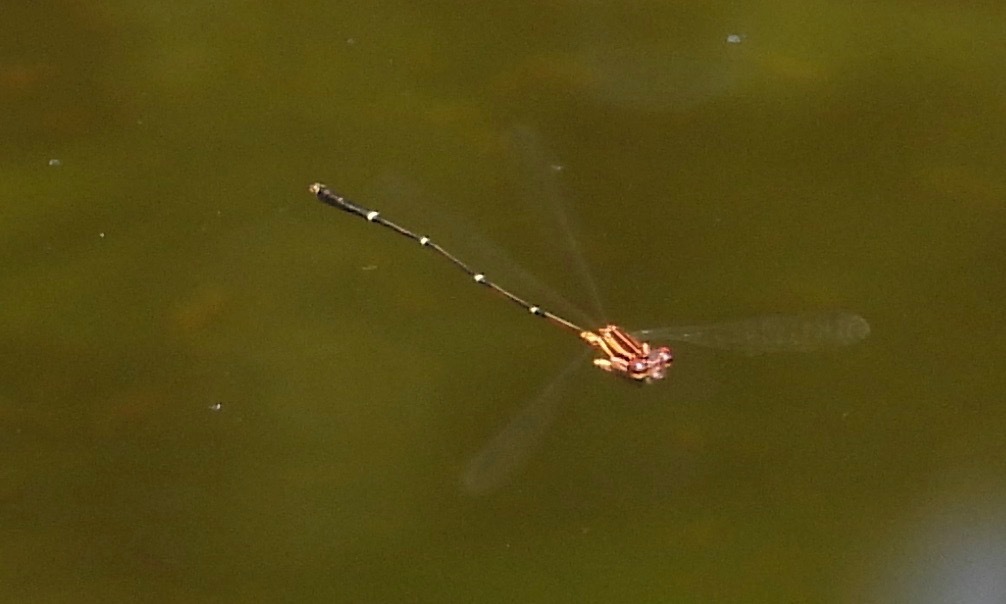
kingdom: Animalia
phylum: Arthropoda
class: Insecta
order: Odonata
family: Coenagrionidae
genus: Protoneura
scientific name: Protoneura cara
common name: Orange-striped threadtail
